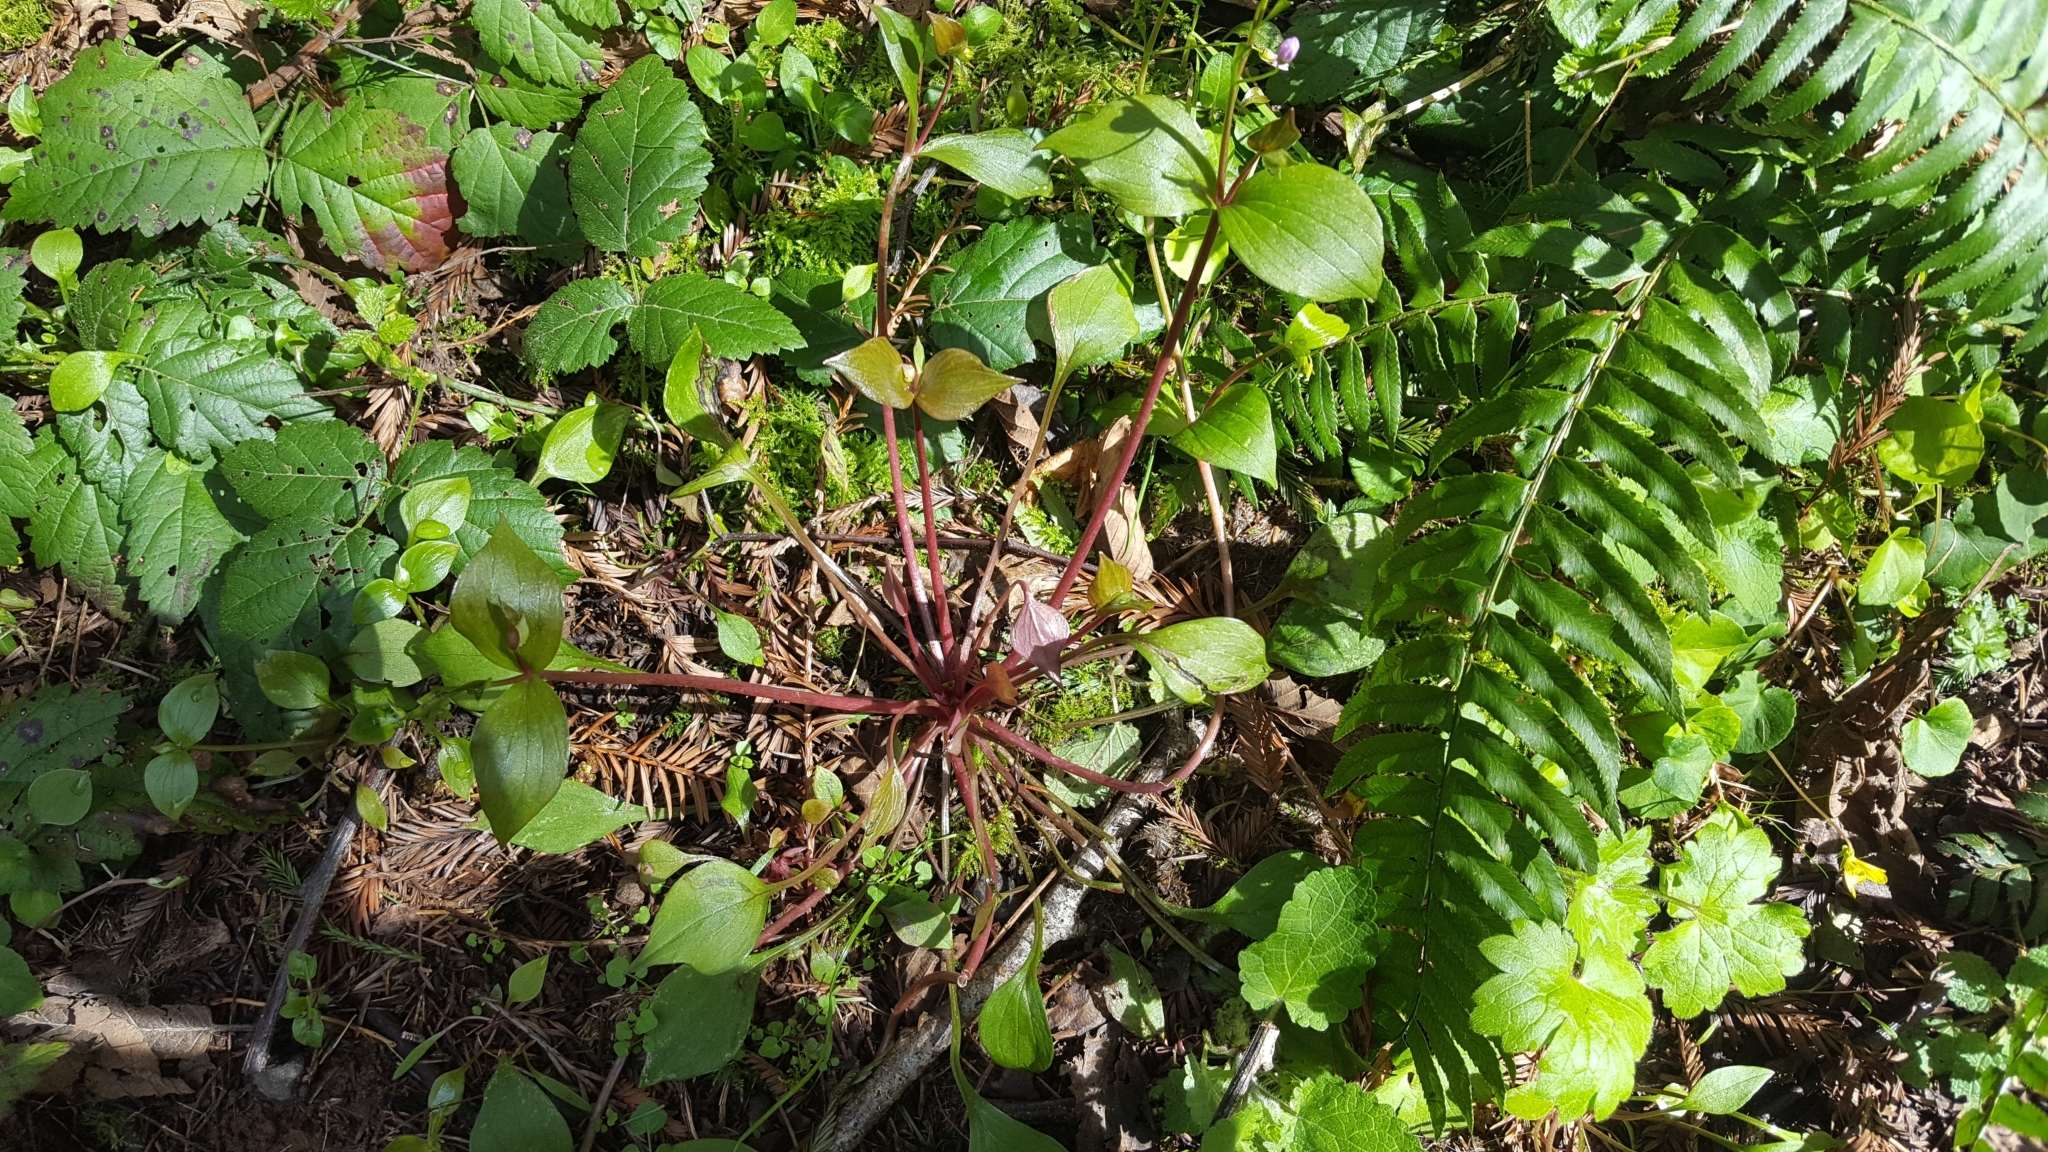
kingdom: Plantae
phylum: Tracheophyta
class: Magnoliopsida
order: Caryophyllales
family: Montiaceae
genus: Claytonia
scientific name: Claytonia sibirica
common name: Pink purslane
